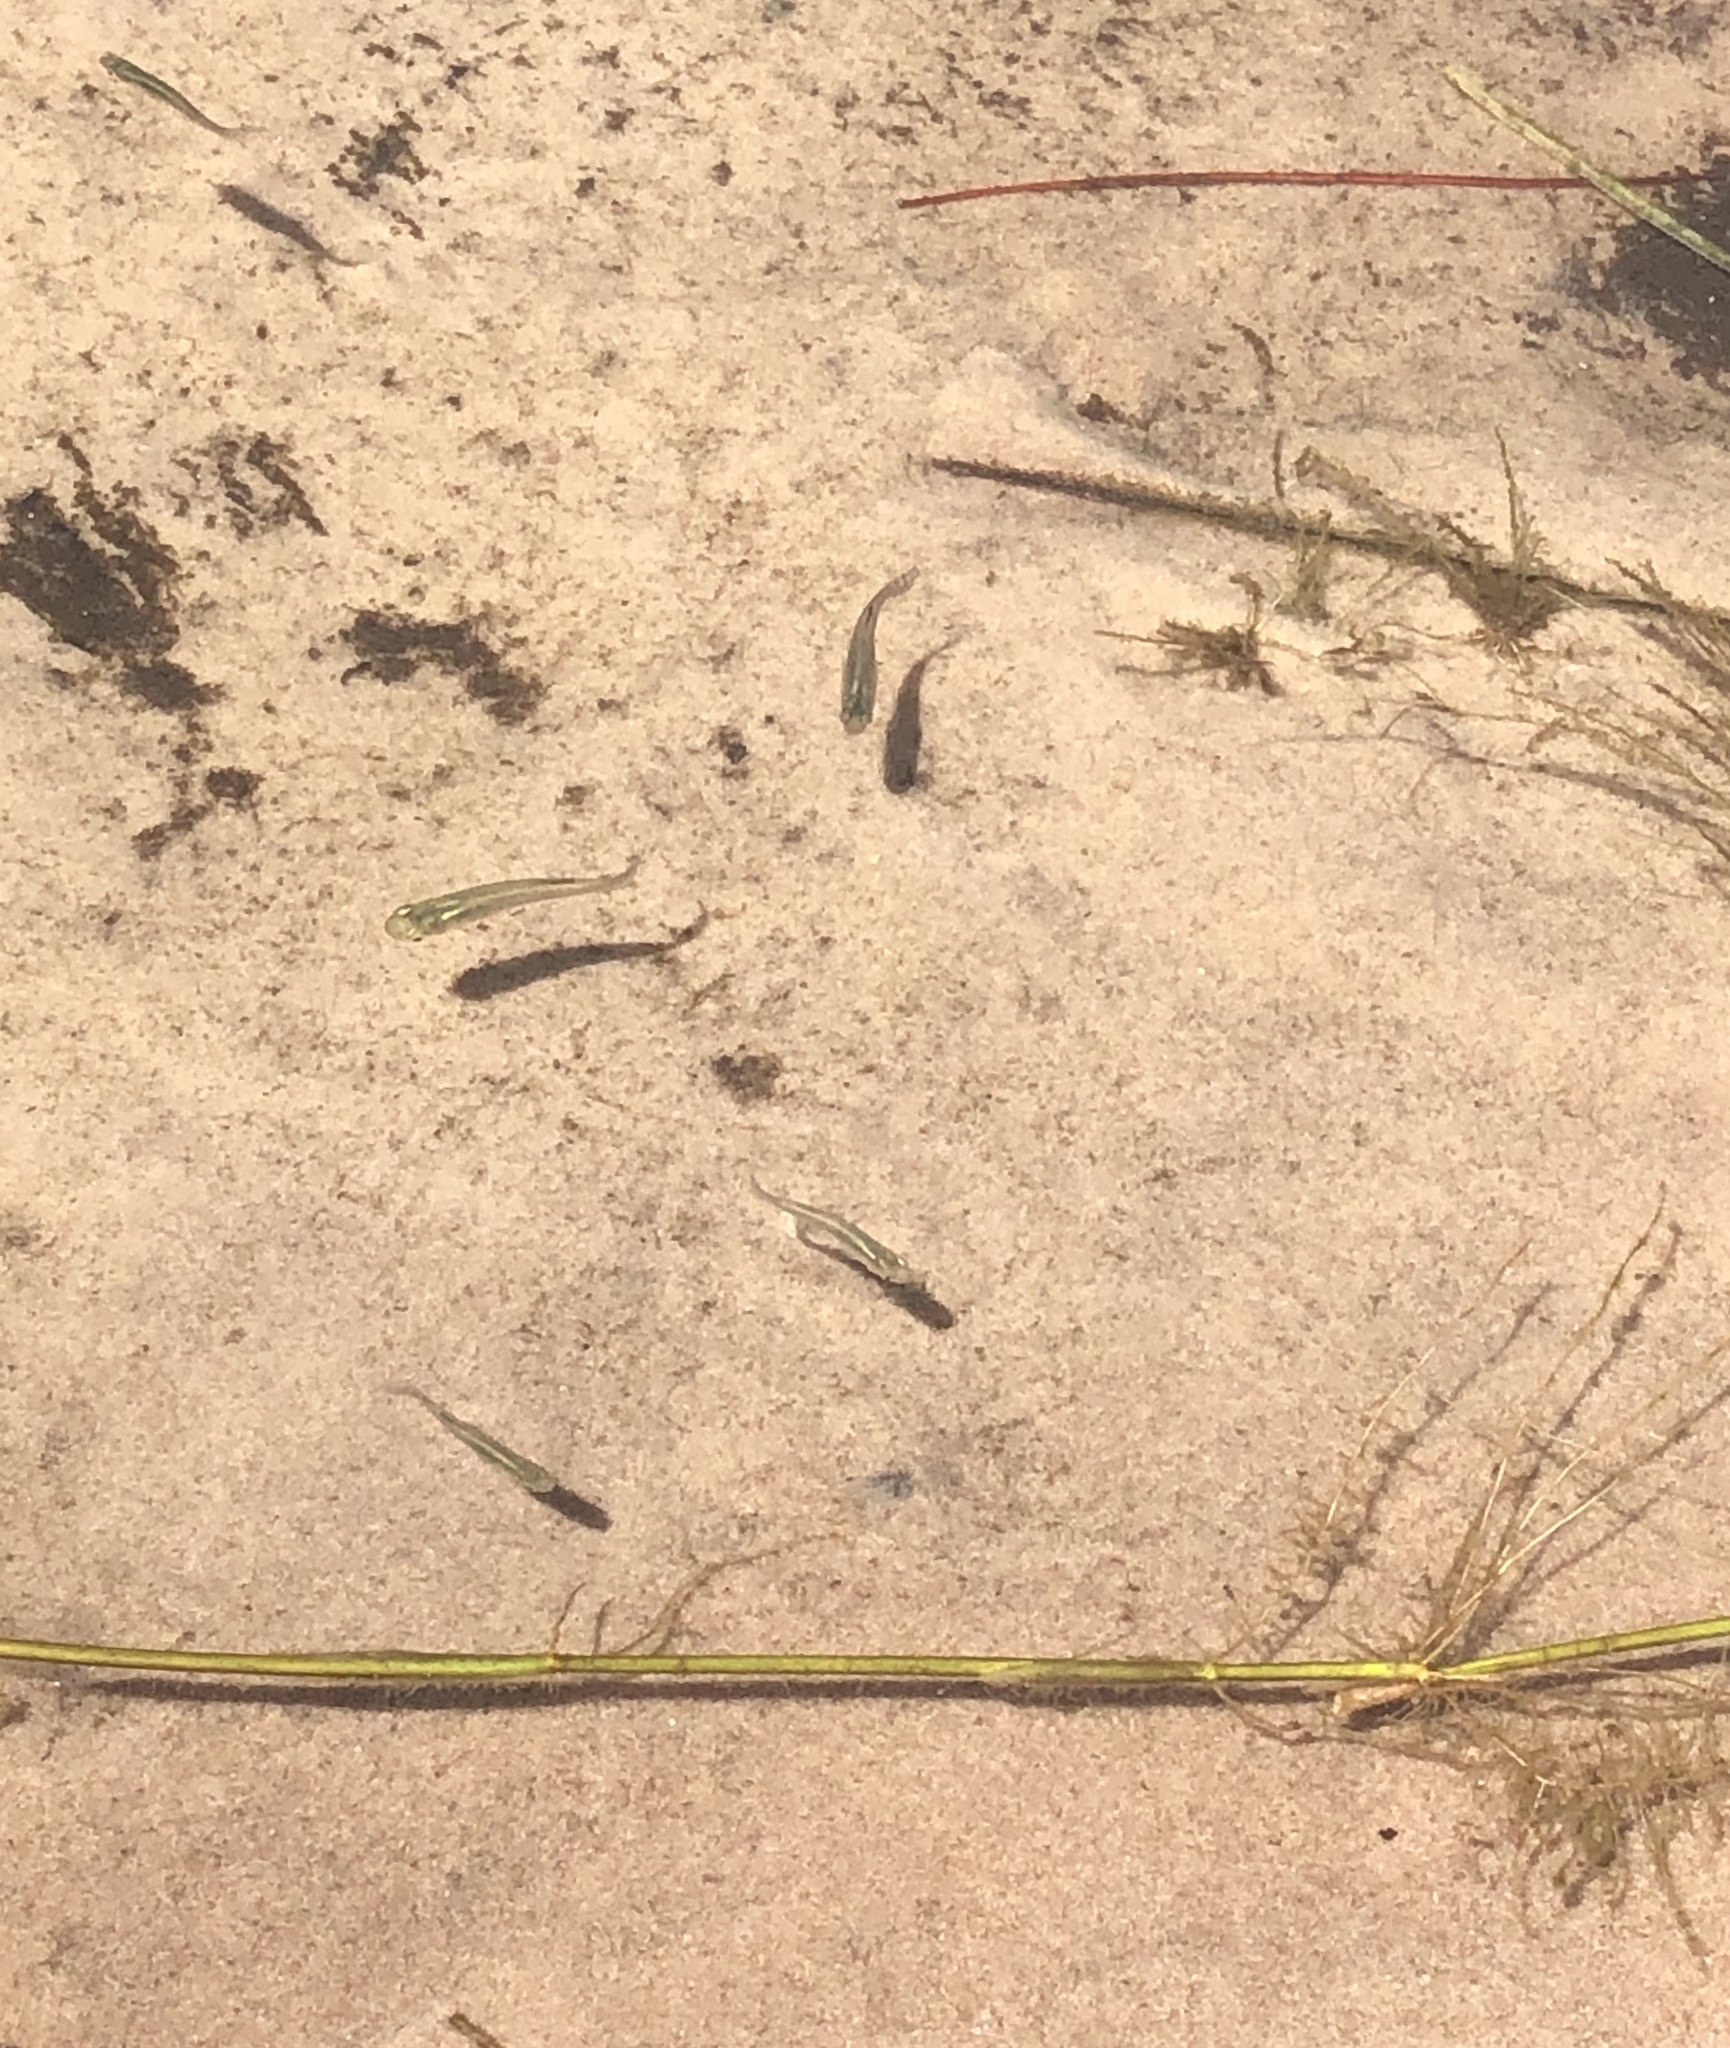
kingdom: Animalia
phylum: Chordata
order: Cyprinodontiformes
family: Poeciliidae
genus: Gambusia
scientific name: Gambusia holbrooki
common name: Eastern mosquitofish
